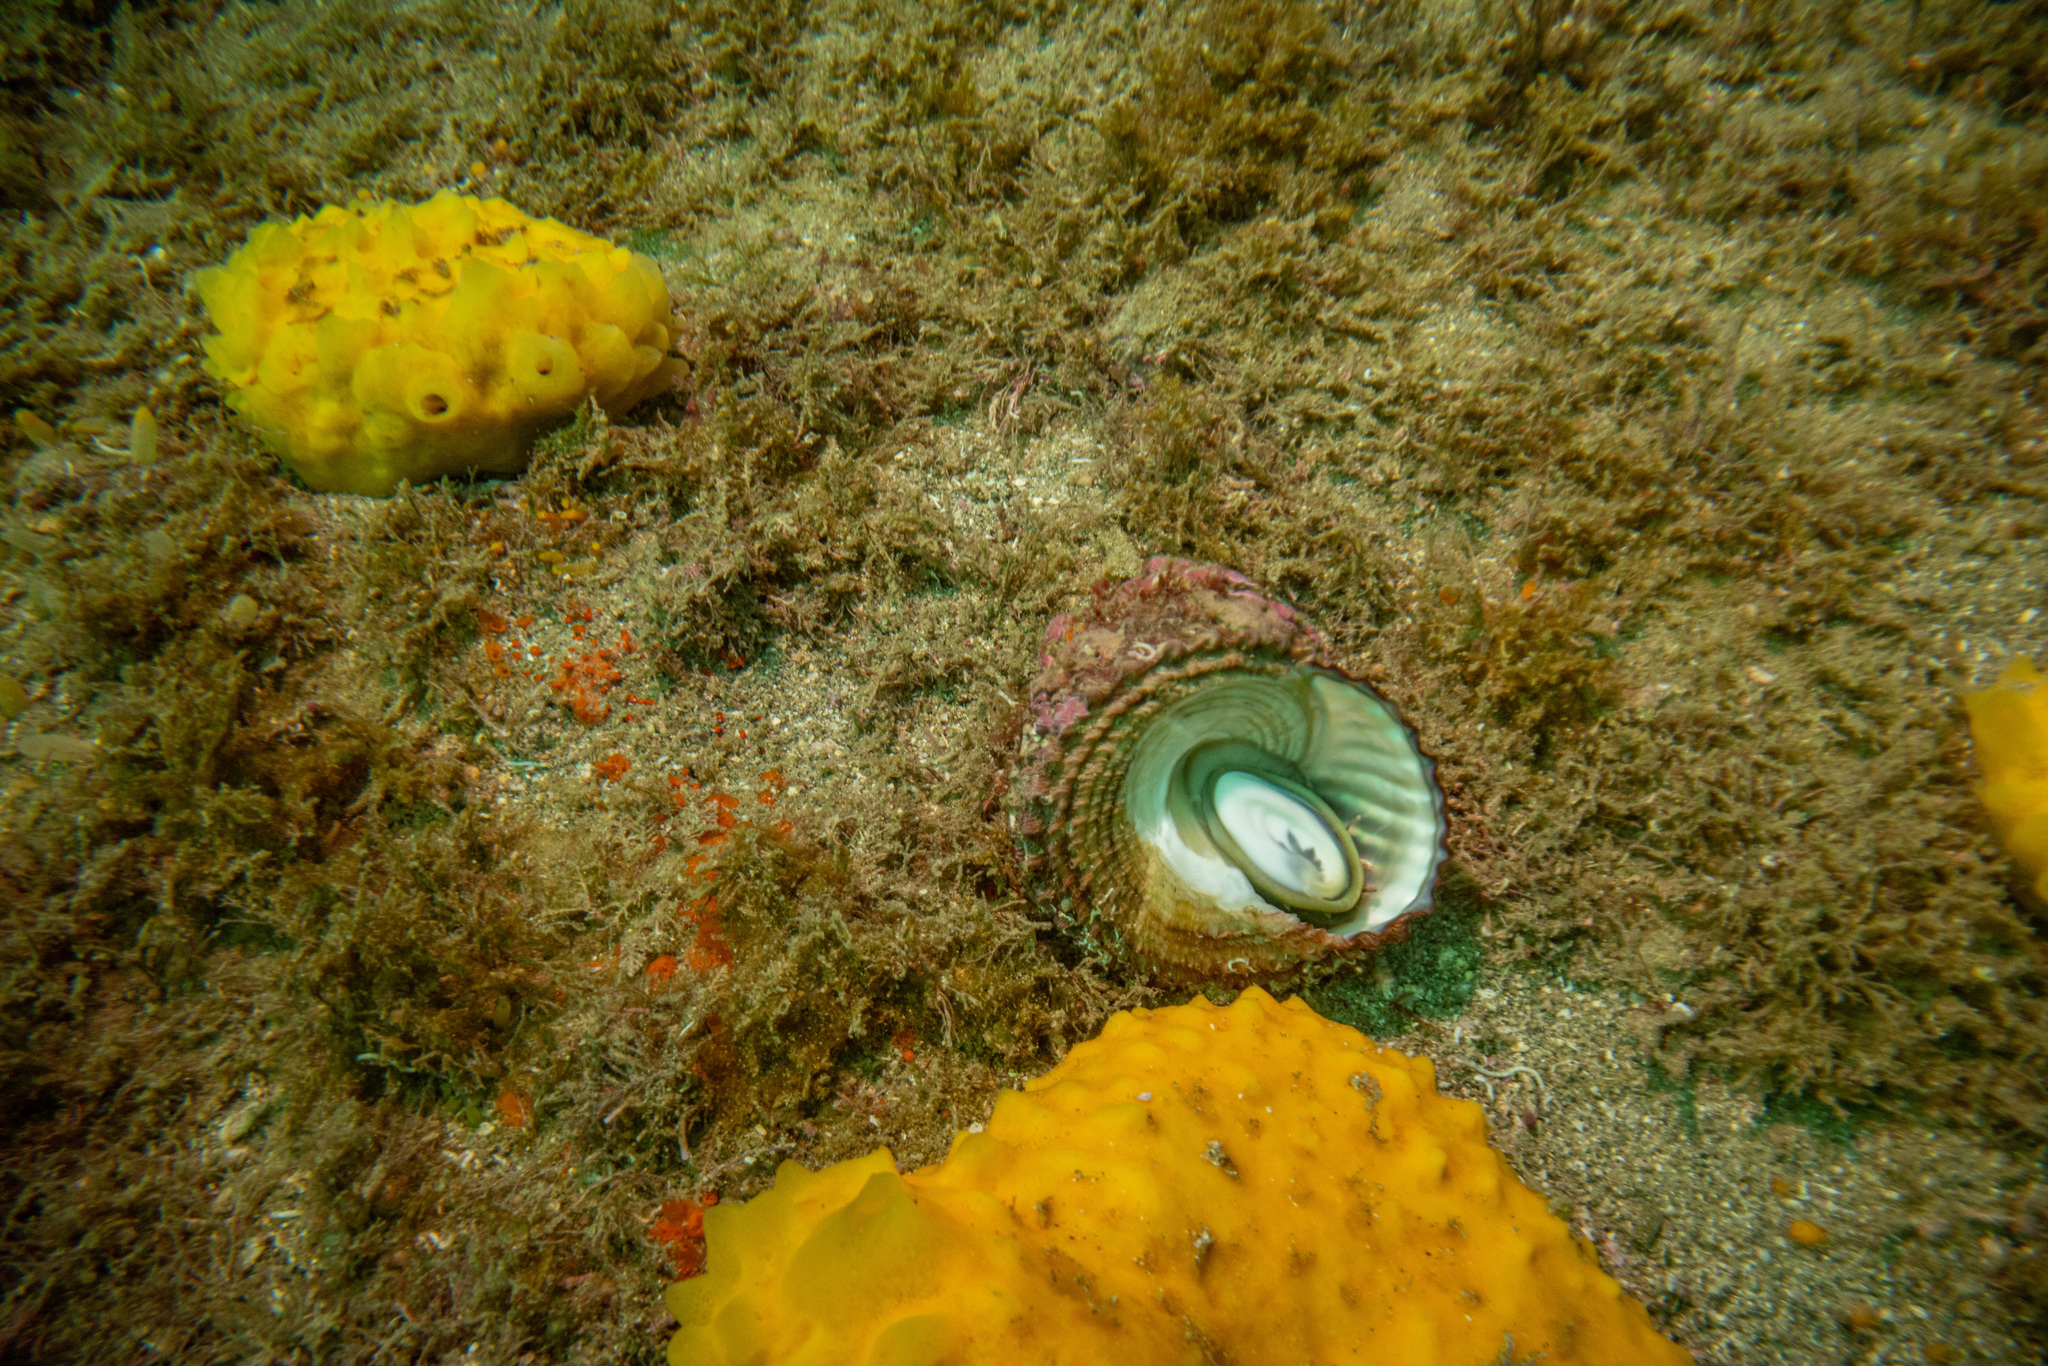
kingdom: Animalia
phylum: Mollusca
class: Gastropoda
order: Trochida
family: Turbinidae
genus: Cookia
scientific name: Cookia sulcata
